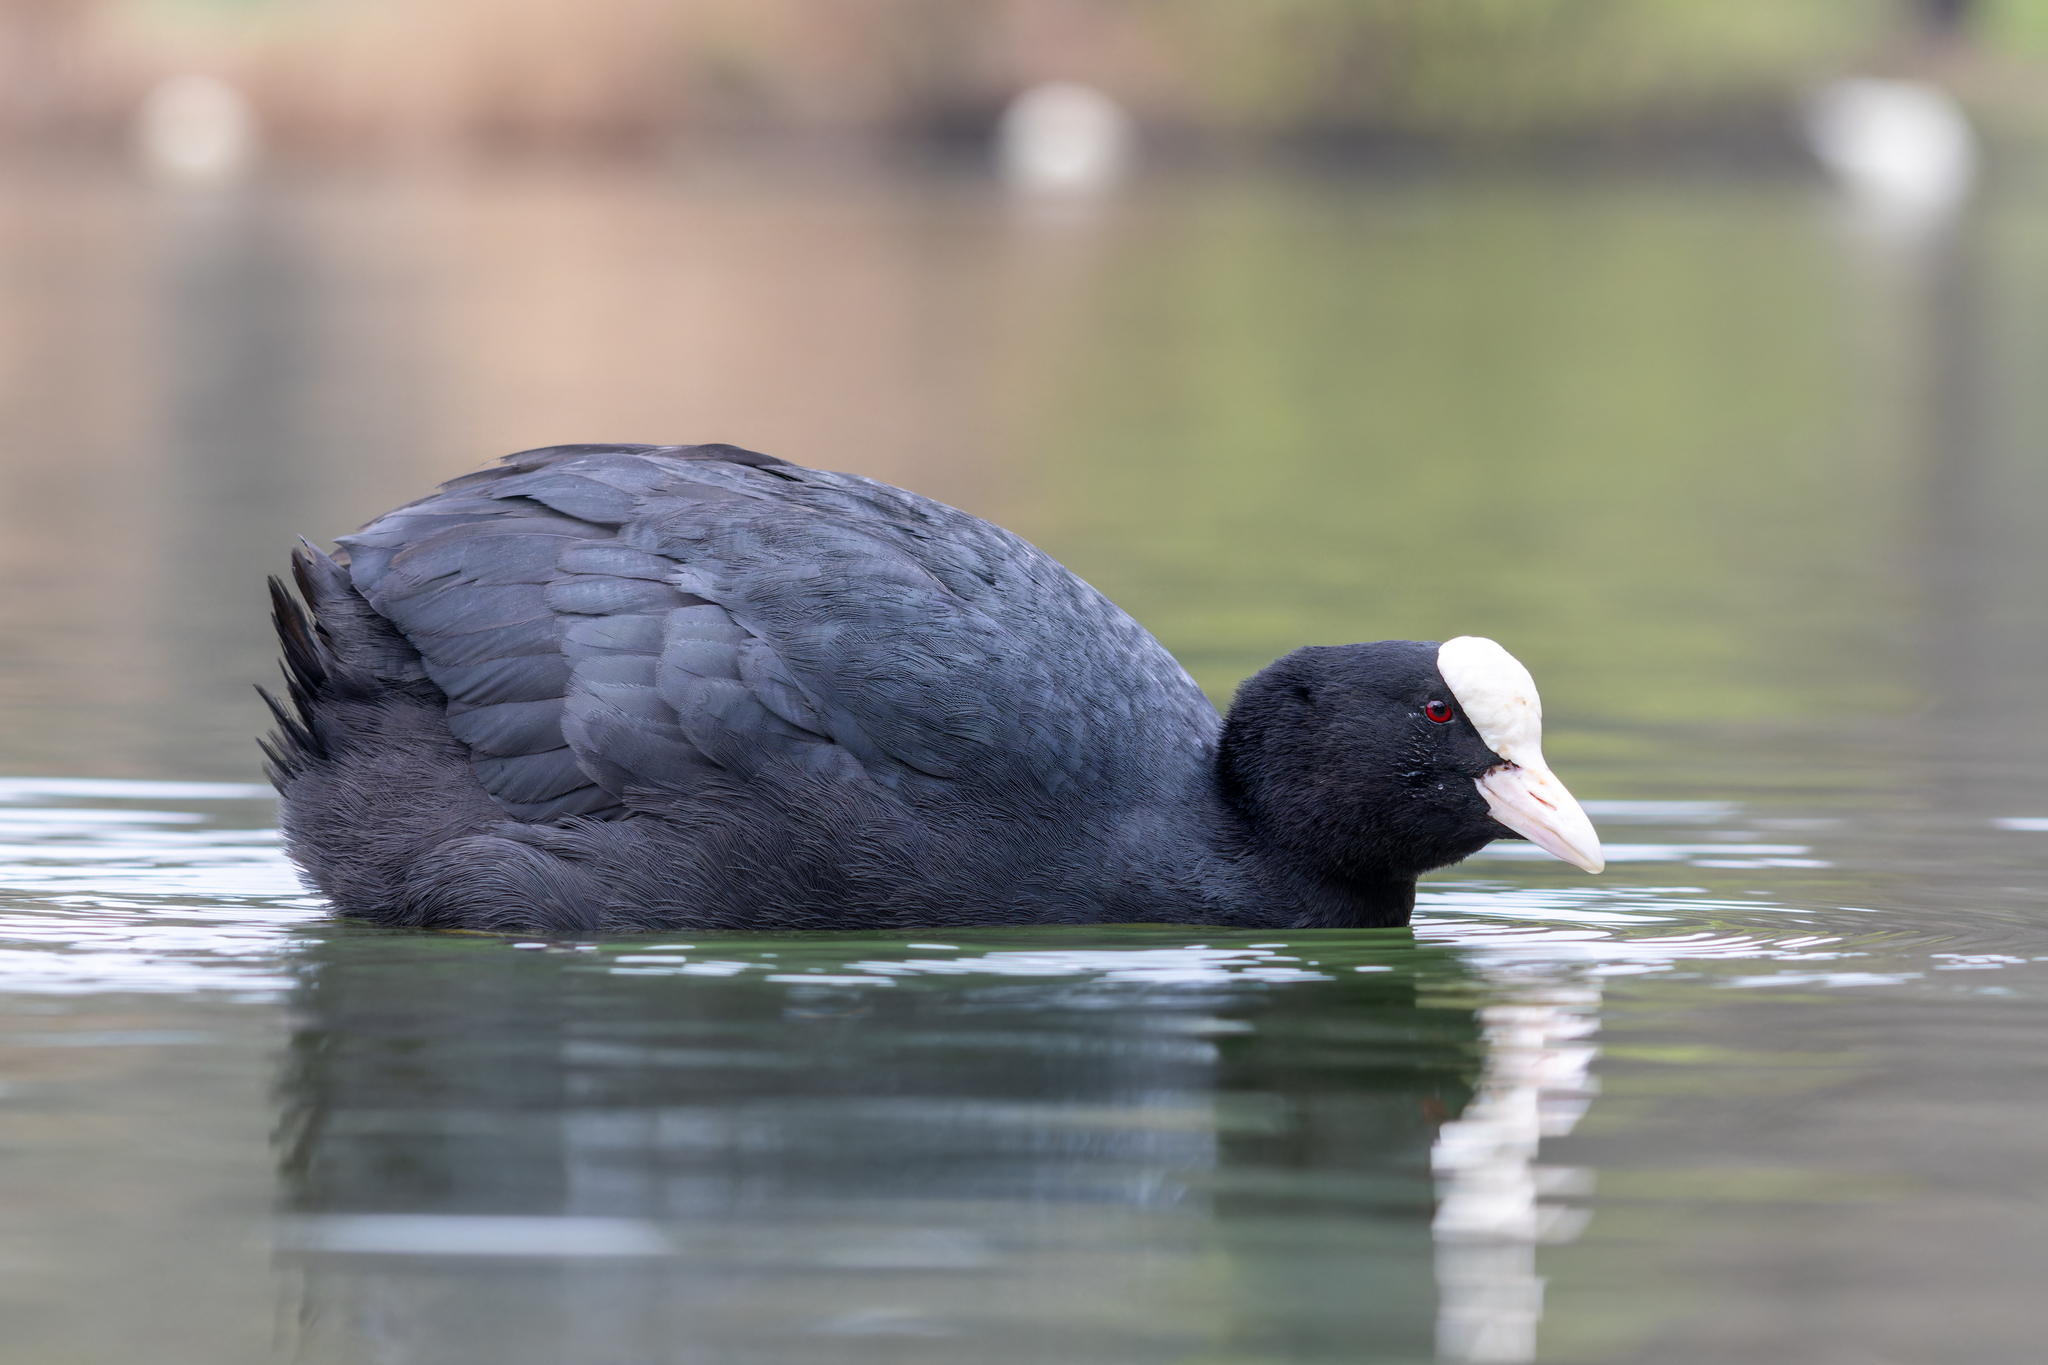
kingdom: Animalia
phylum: Chordata
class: Aves
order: Gruiformes
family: Rallidae
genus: Fulica
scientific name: Fulica atra
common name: Eurasian coot
